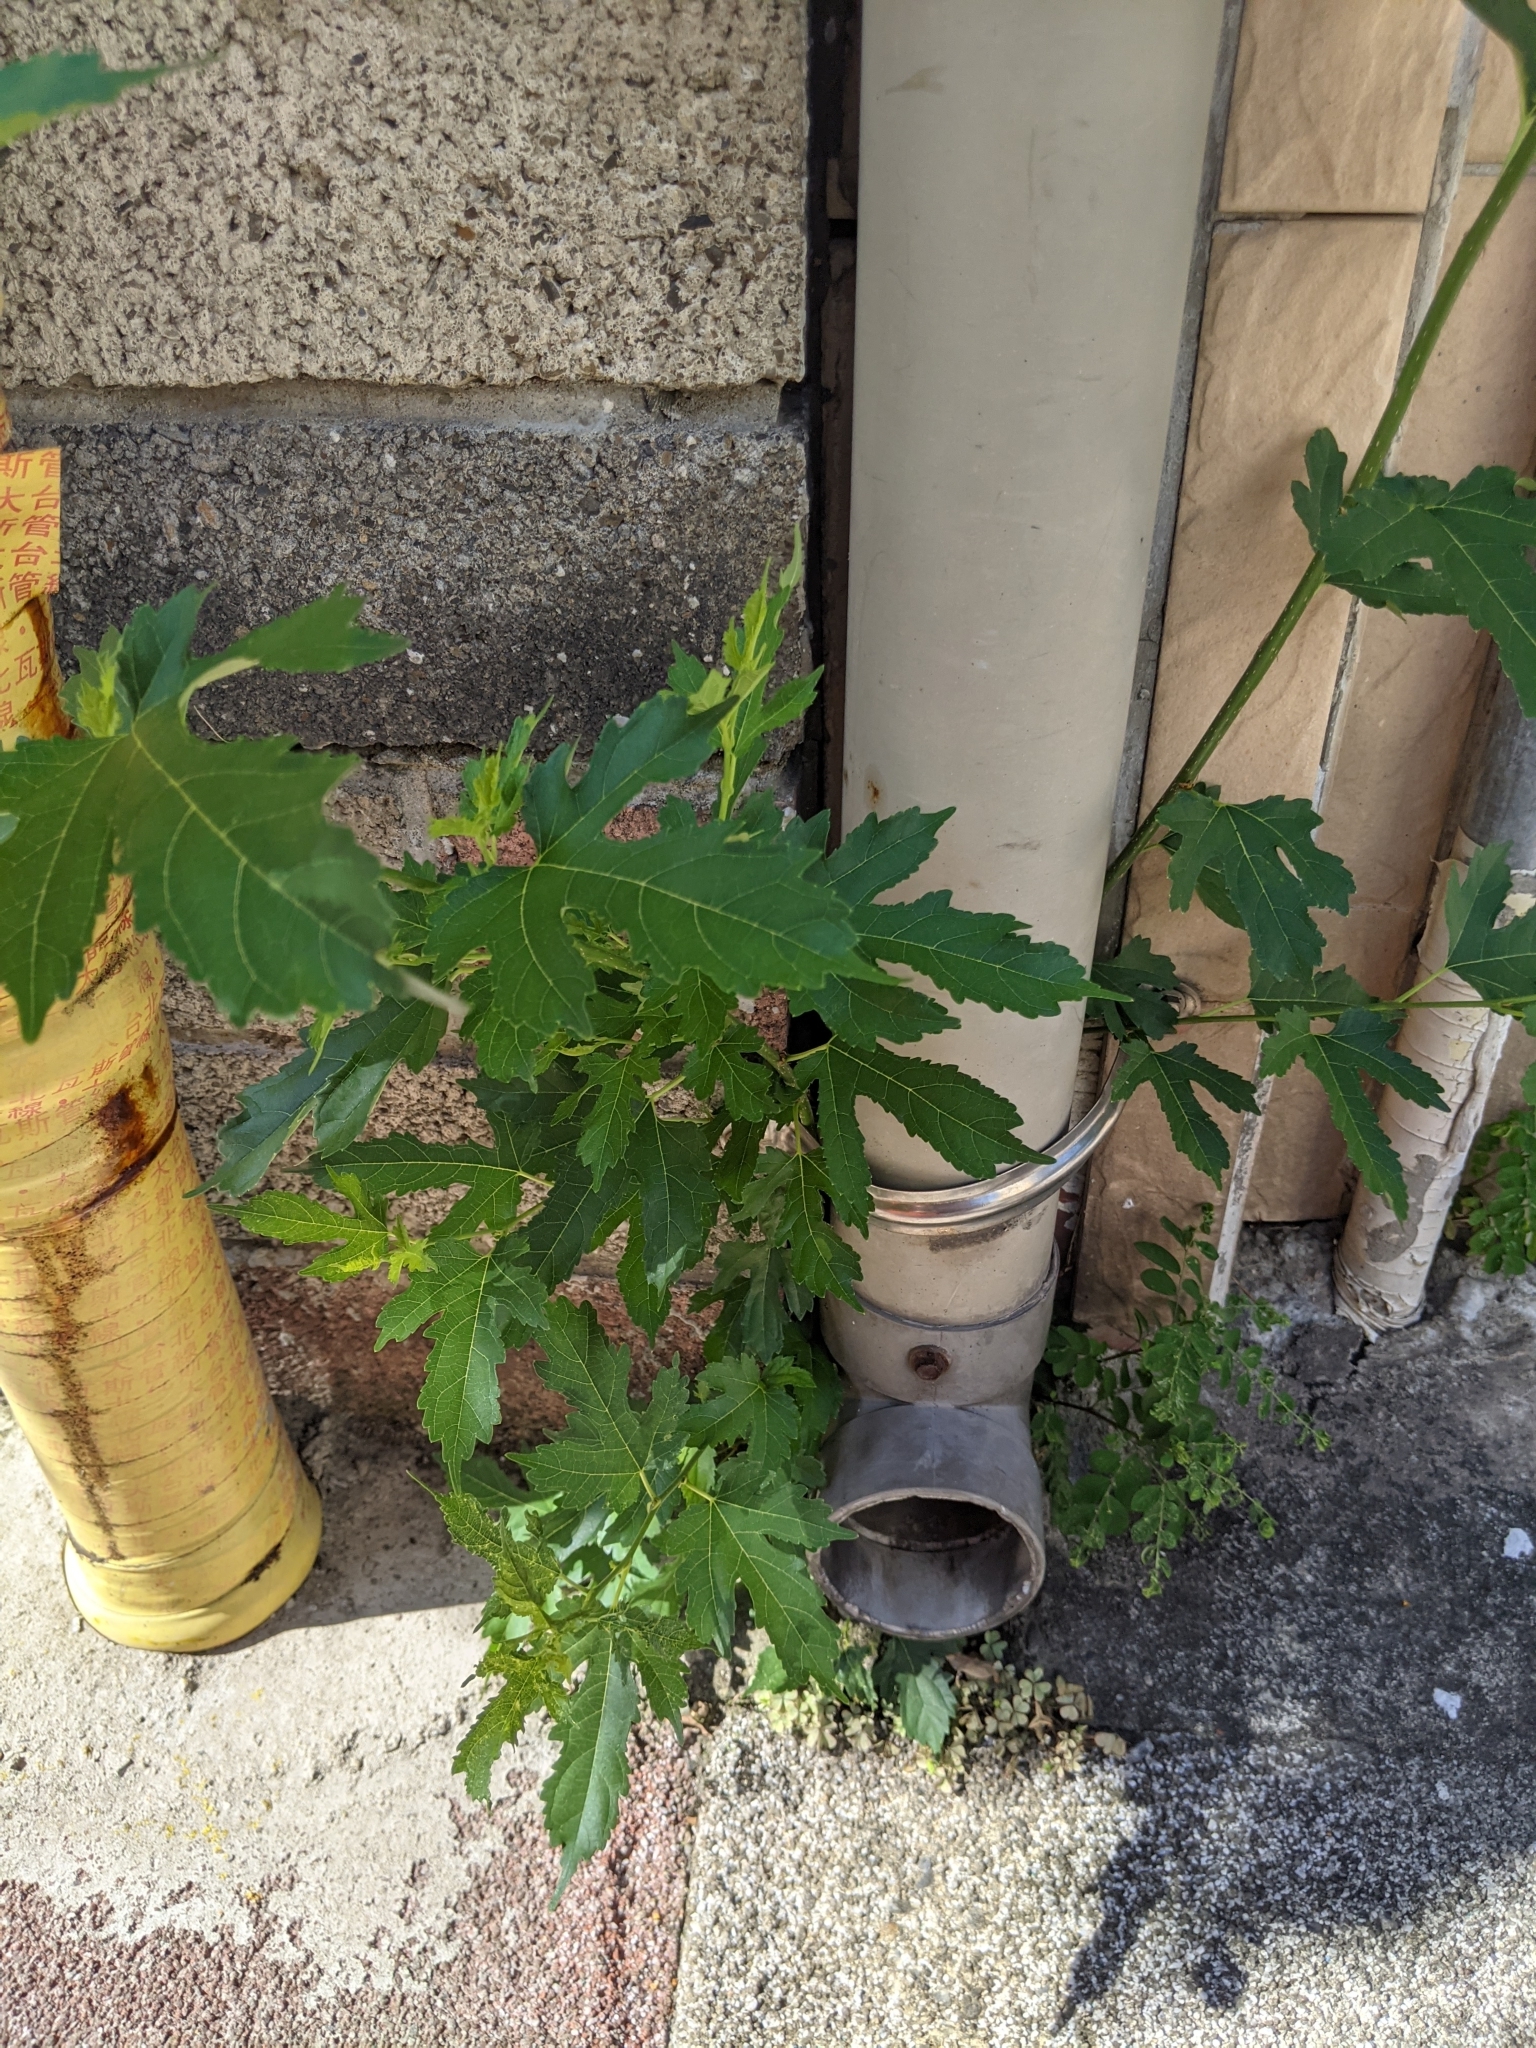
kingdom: Plantae
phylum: Tracheophyta
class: Magnoliopsida
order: Rosales
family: Moraceae
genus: Morus
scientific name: Morus indica
